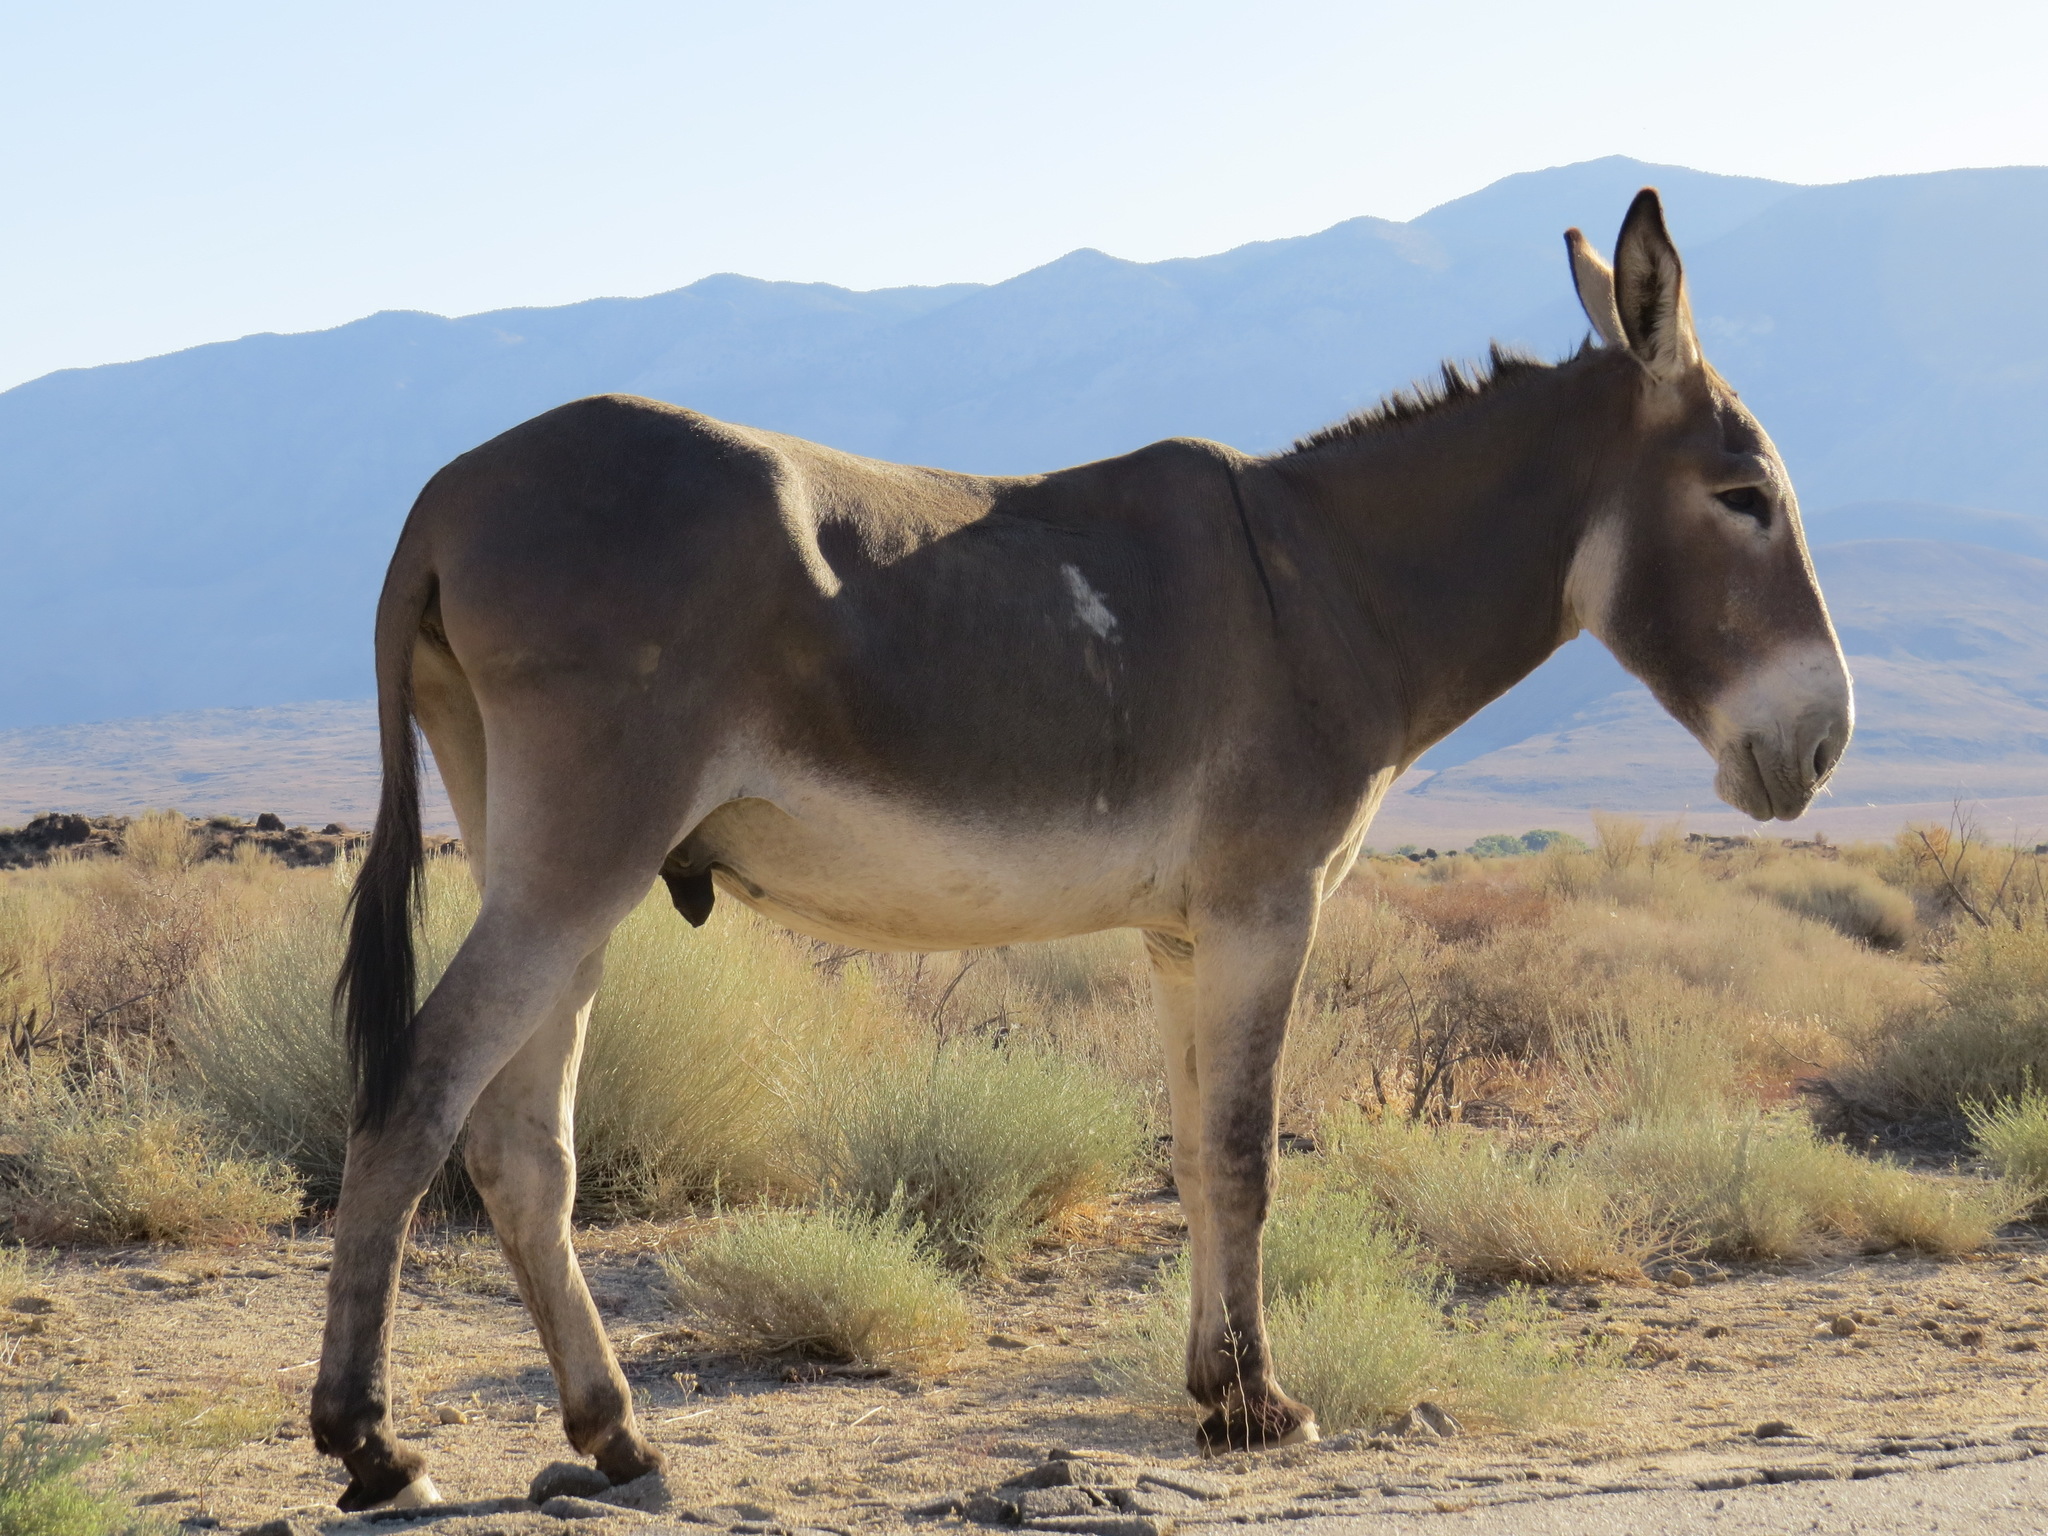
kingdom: Animalia
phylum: Chordata
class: Mammalia
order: Perissodactyla
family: Equidae
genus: Equus
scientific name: Equus asinus
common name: Ass
